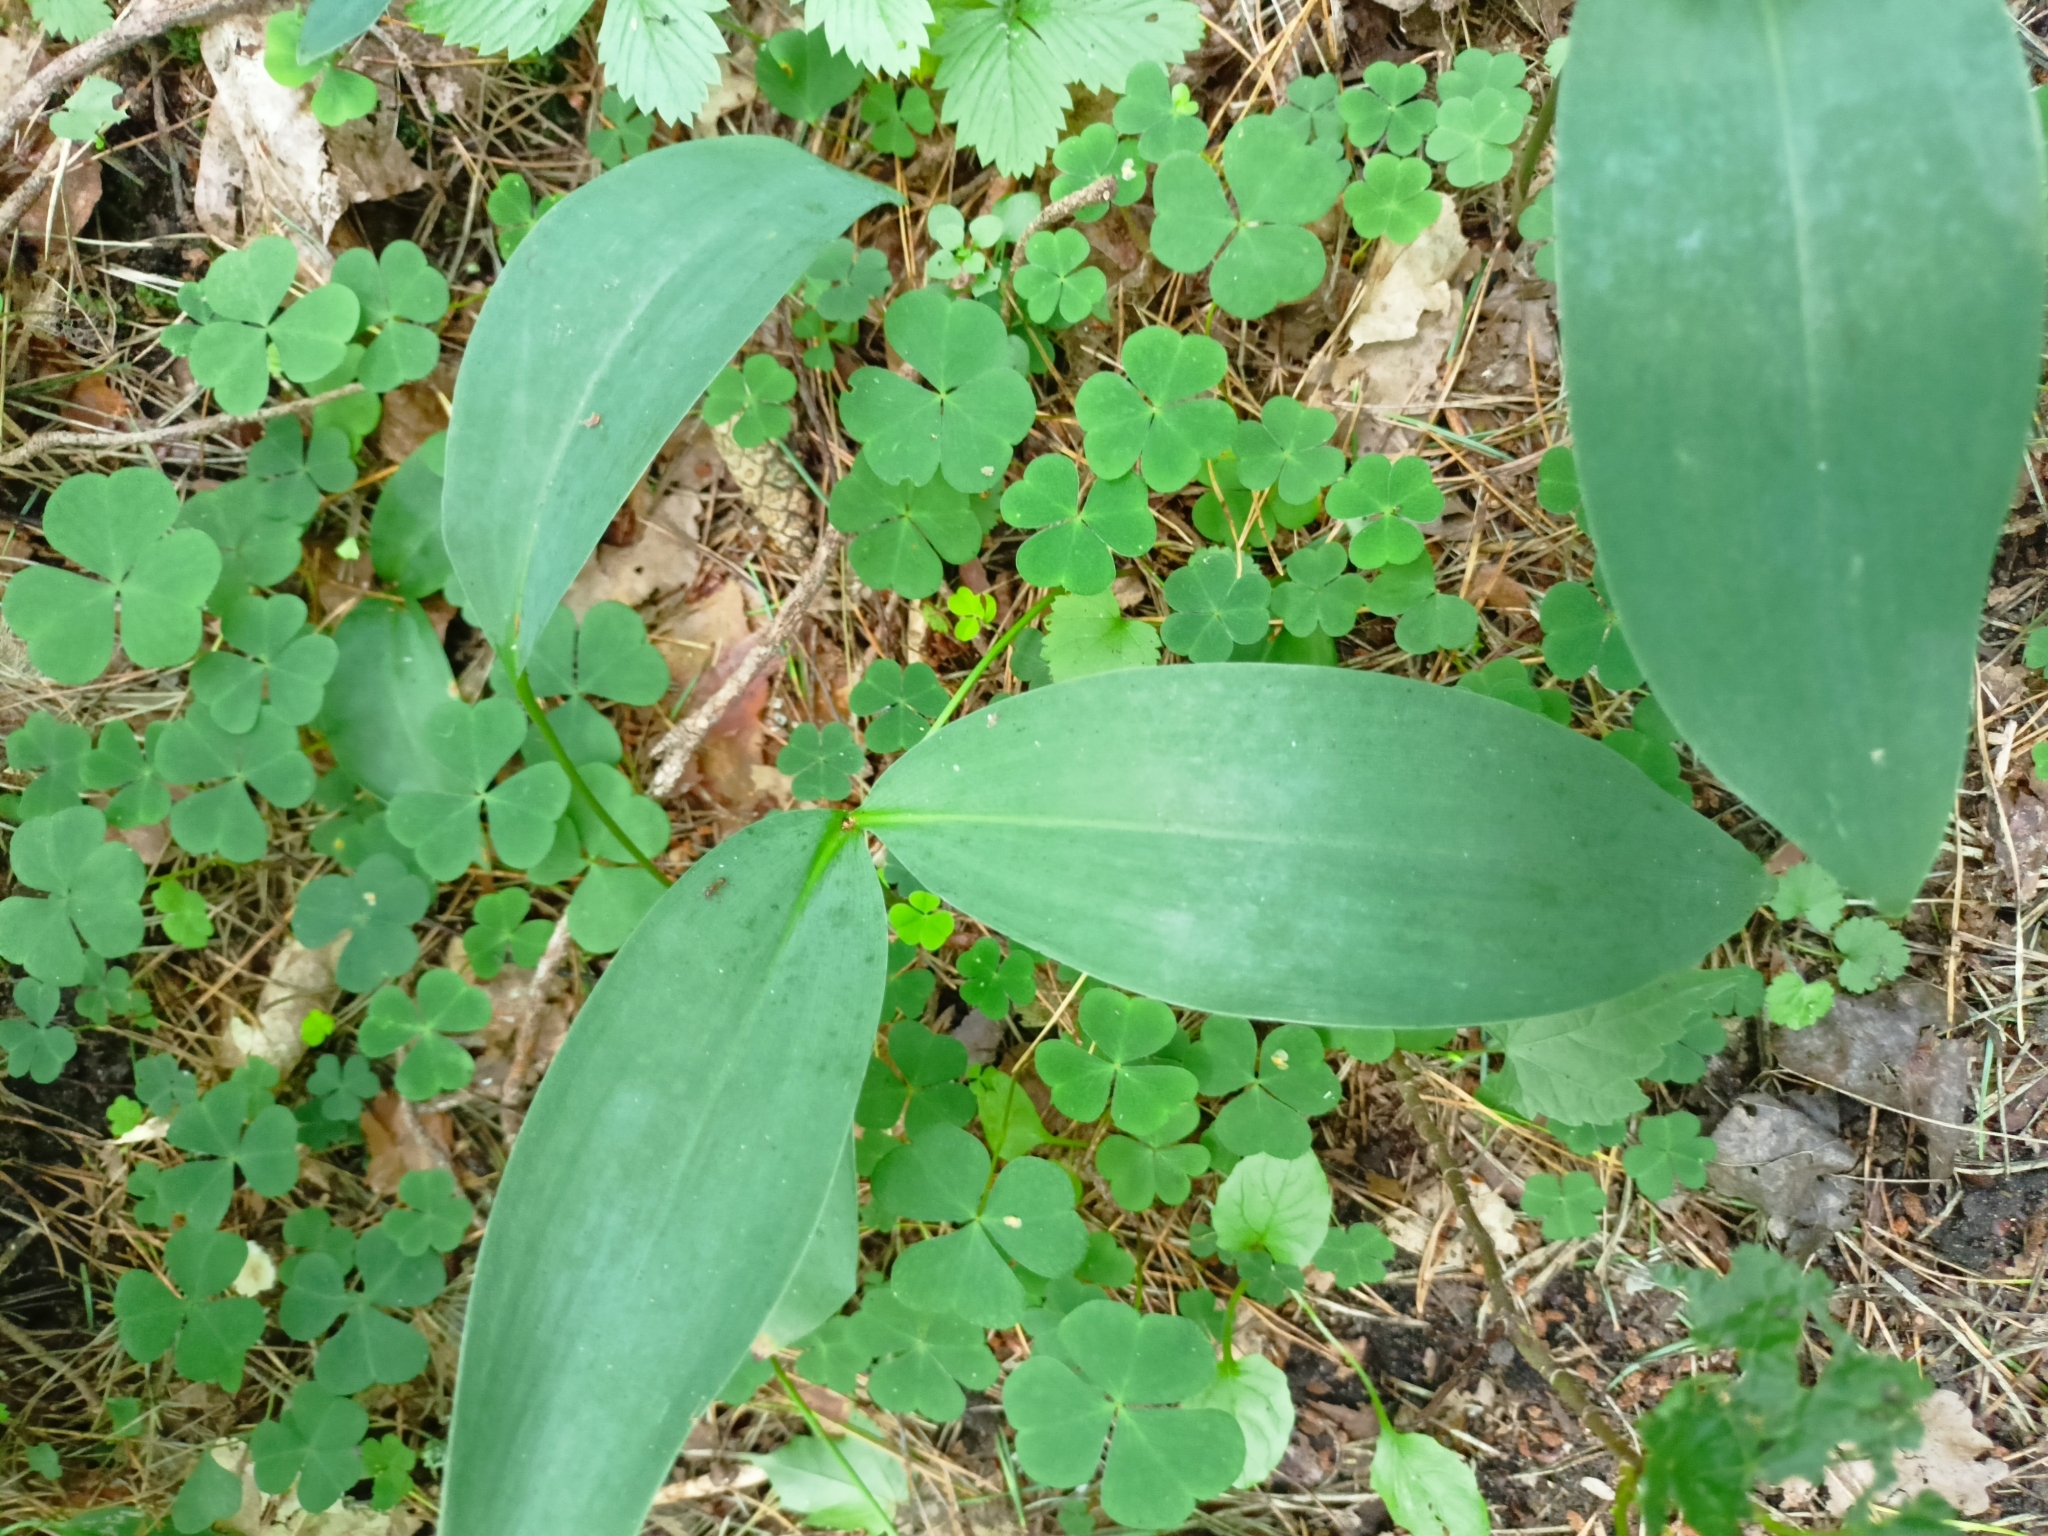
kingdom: Plantae
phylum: Tracheophyta
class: Liliopsida
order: Asparagales
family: Asparagaceae
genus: Convallaria
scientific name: Convallaria majalis
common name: Lily-of-the-valley
